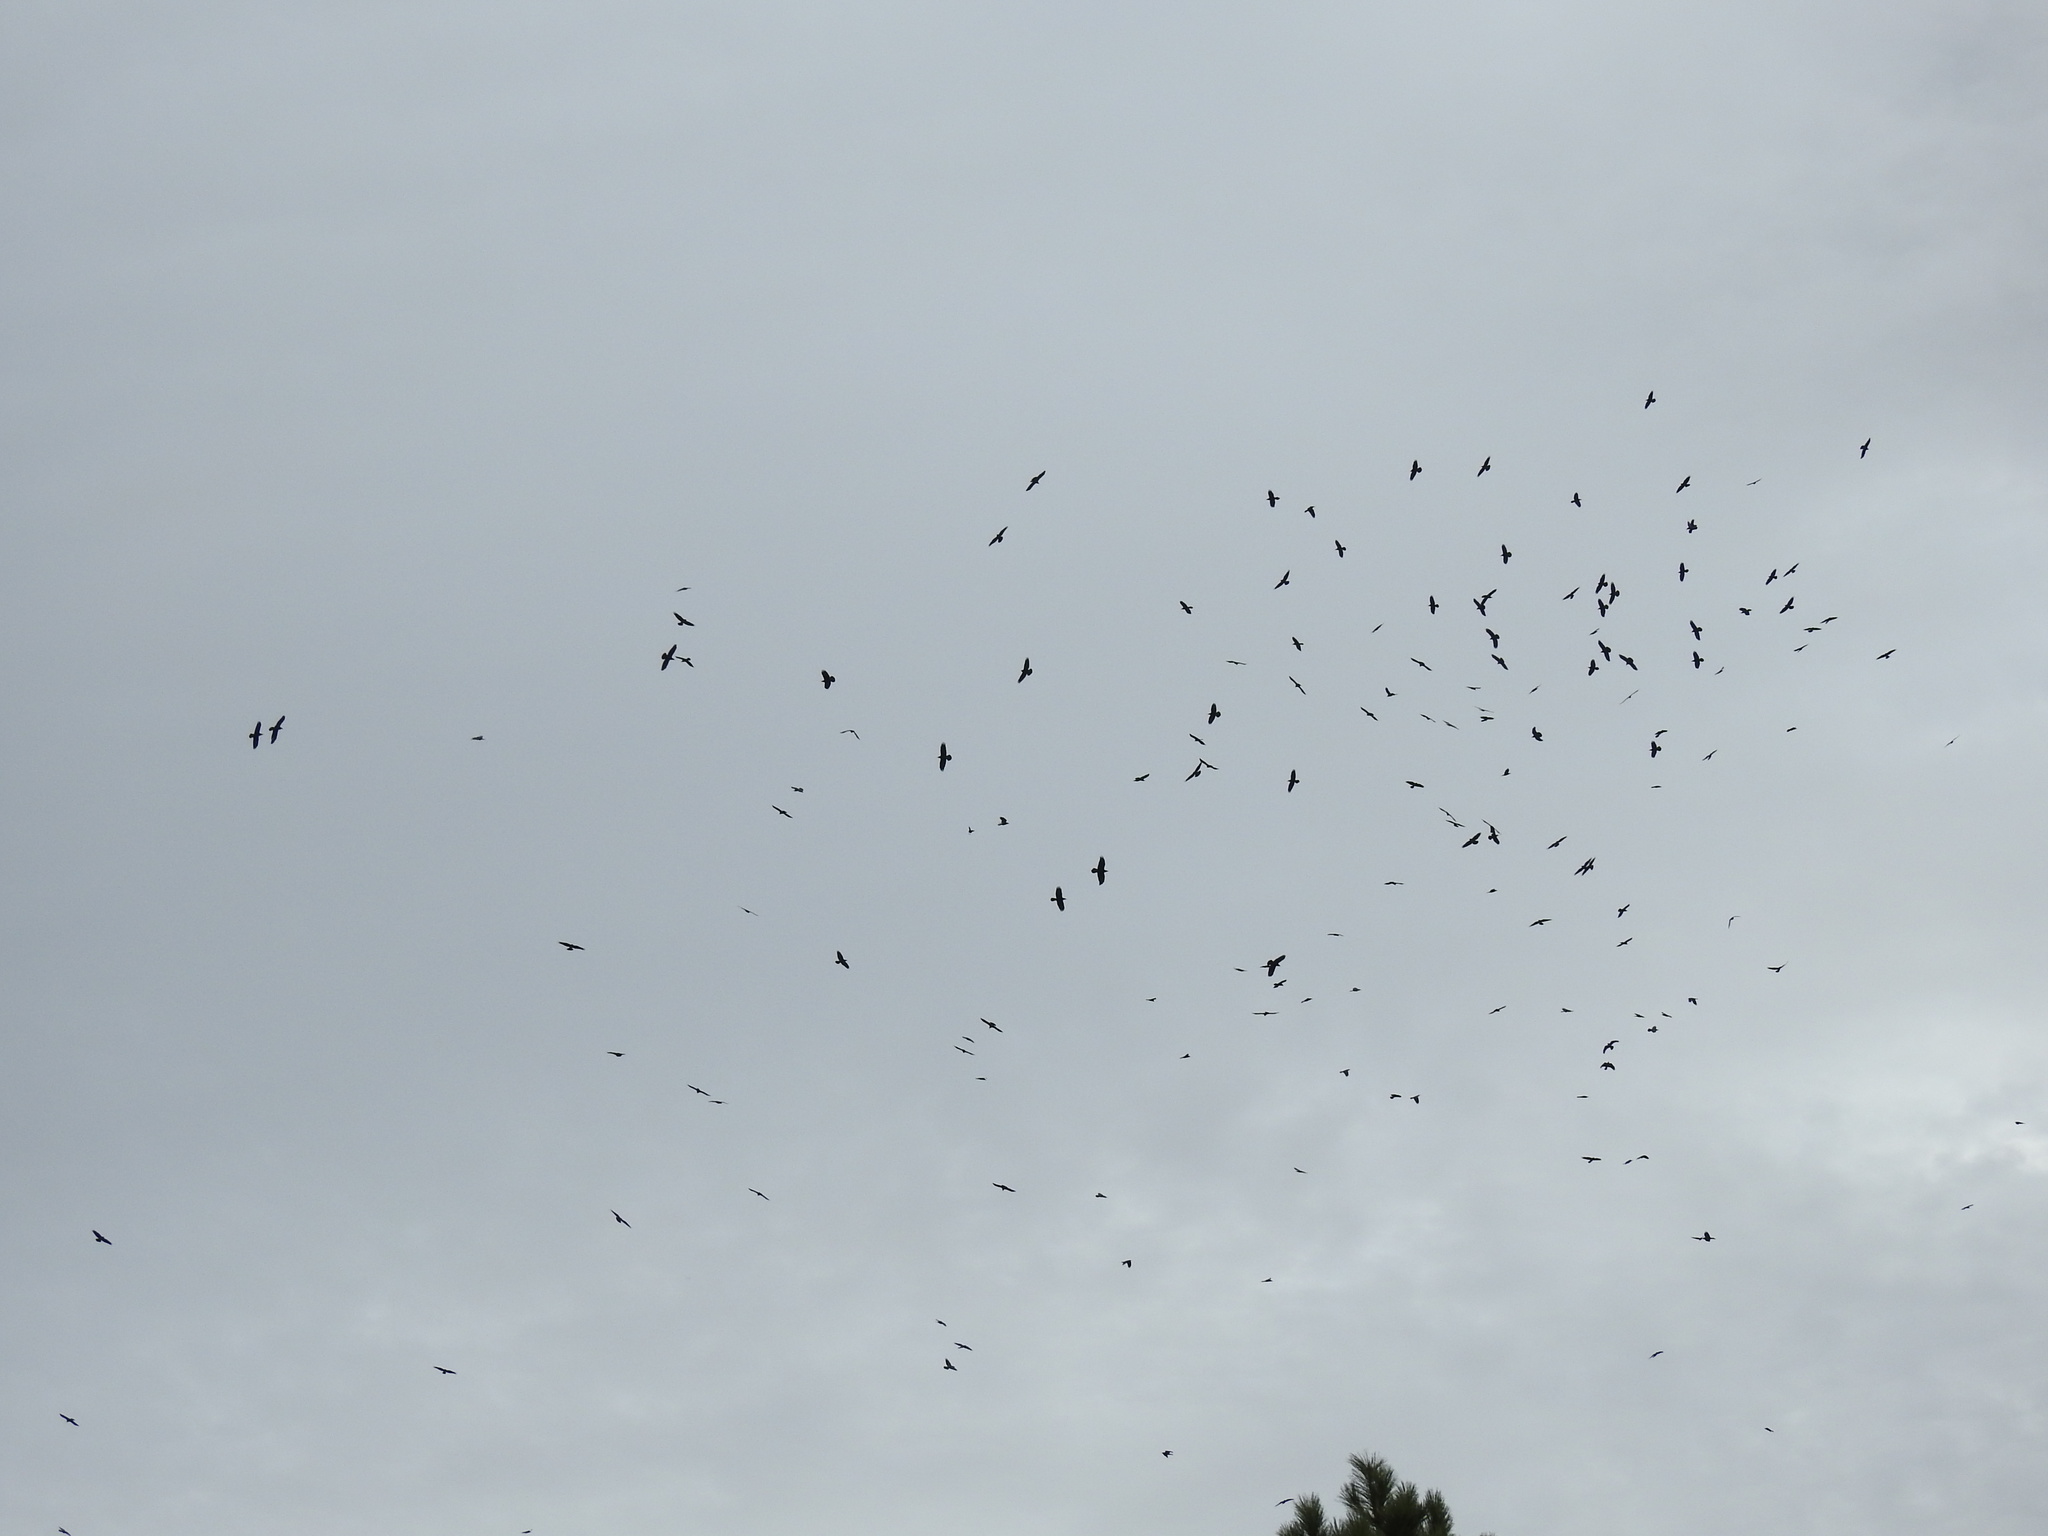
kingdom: Animalia
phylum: Chordata
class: Aves
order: Passeriformes
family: Corvidae
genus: Corvus
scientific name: Corvus corax
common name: Common raven
